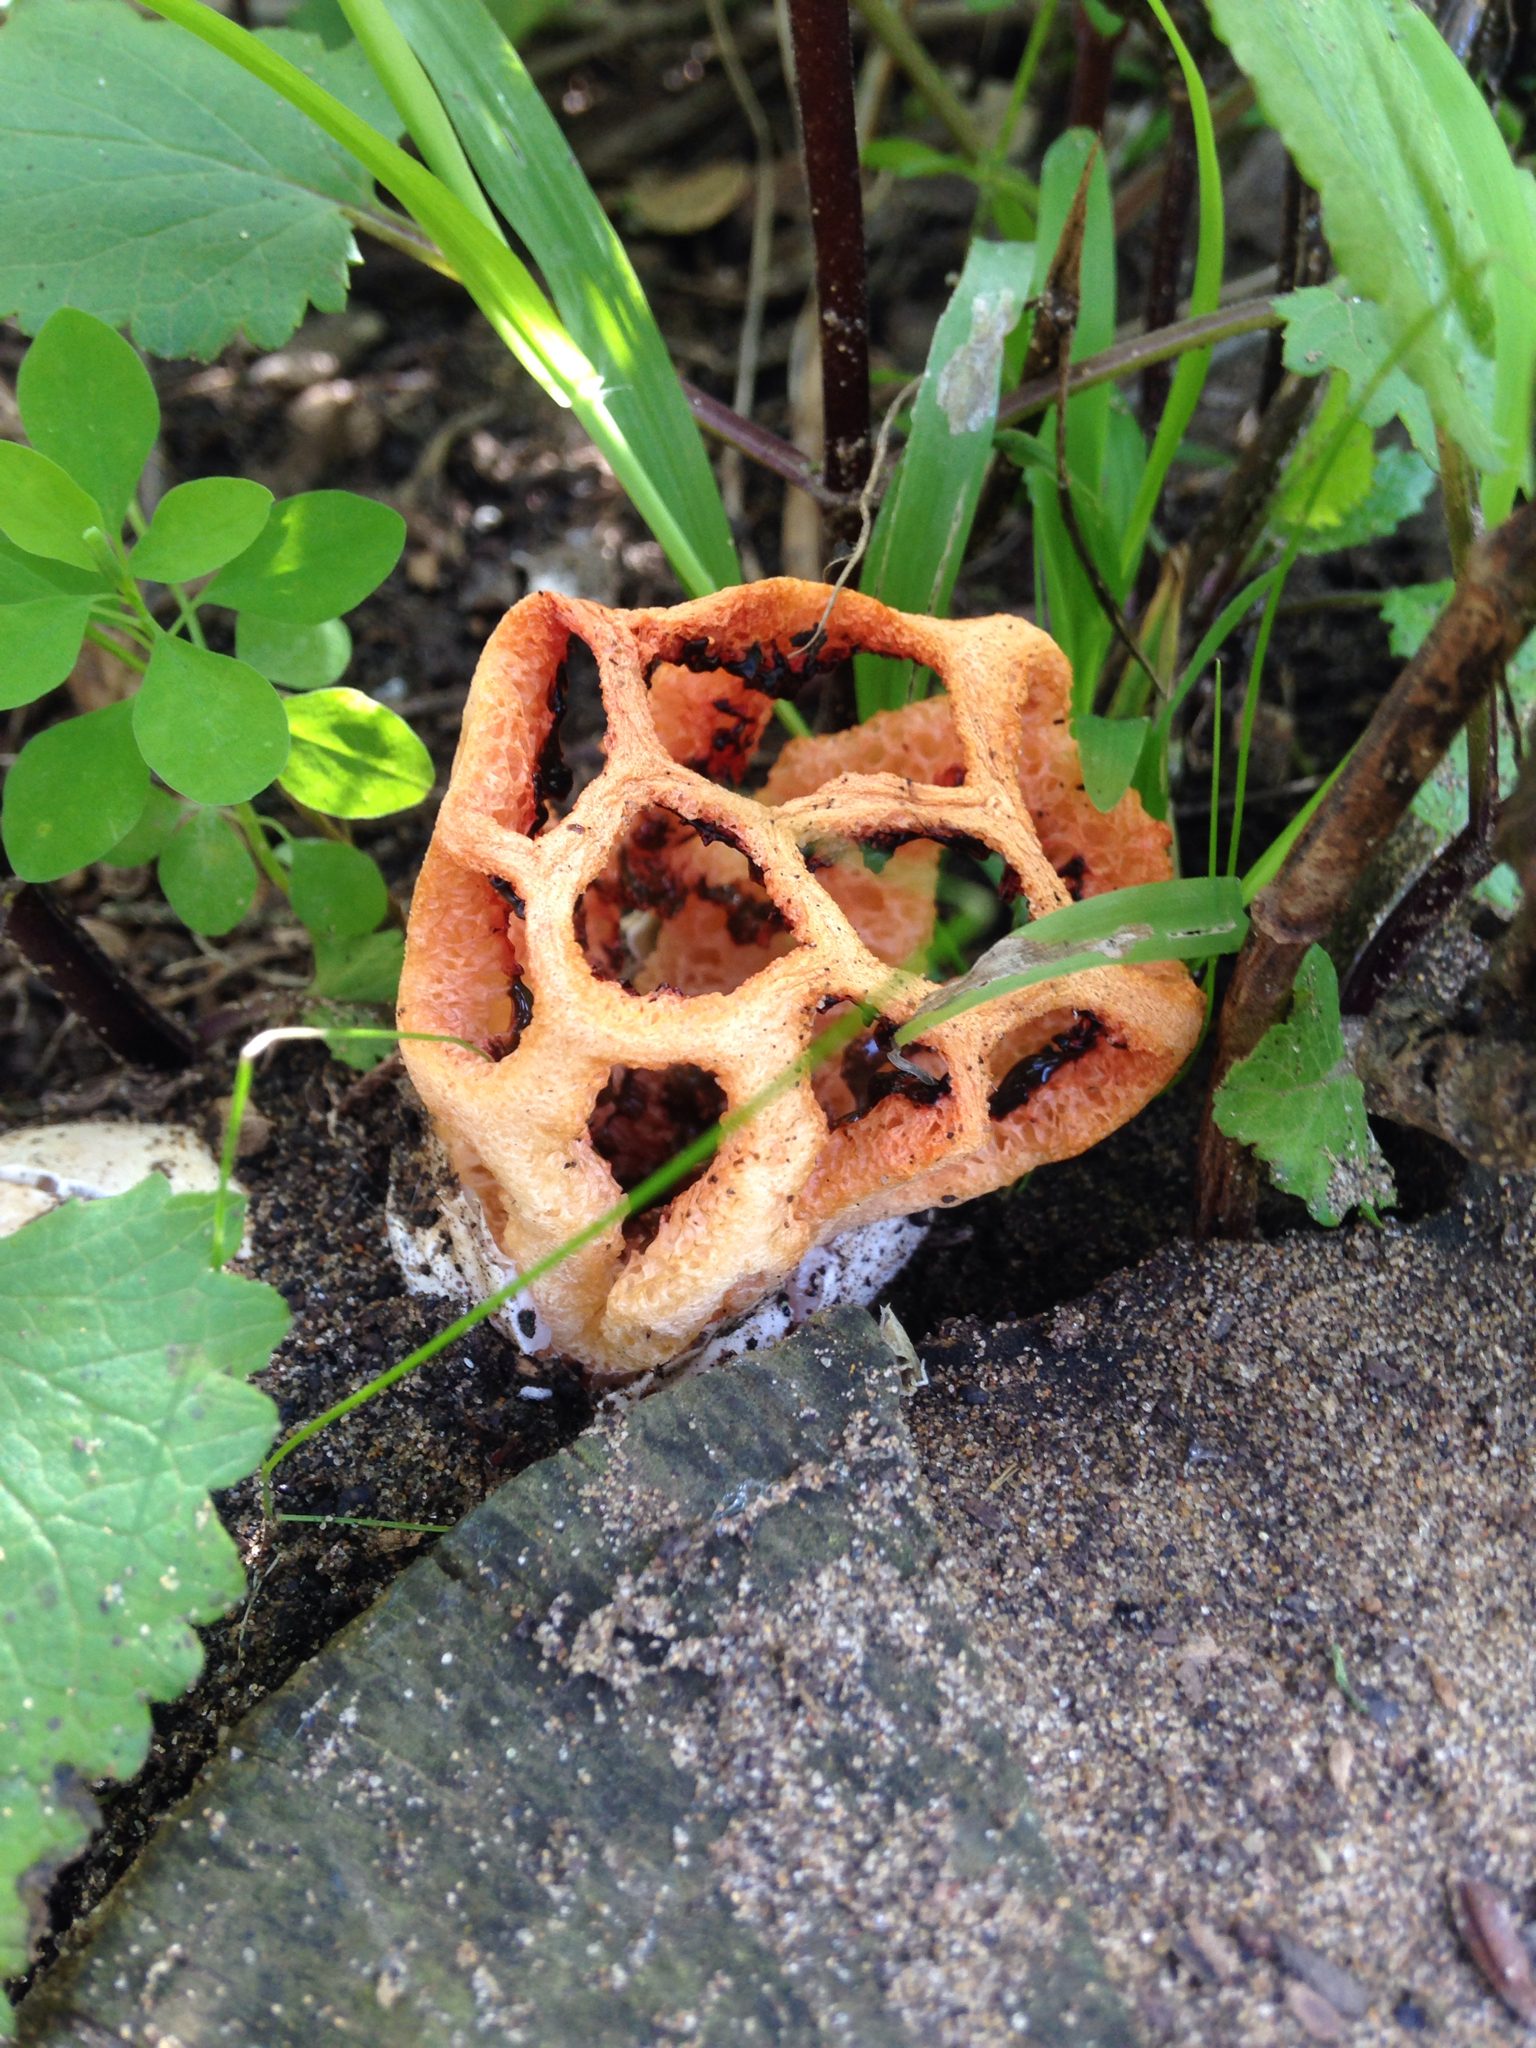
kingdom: Fungi
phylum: Basidiomycota
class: Agaricomycetes
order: Phallales
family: Phallaceae
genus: Clathrus
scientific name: Clathrus ruber
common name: Red cage
